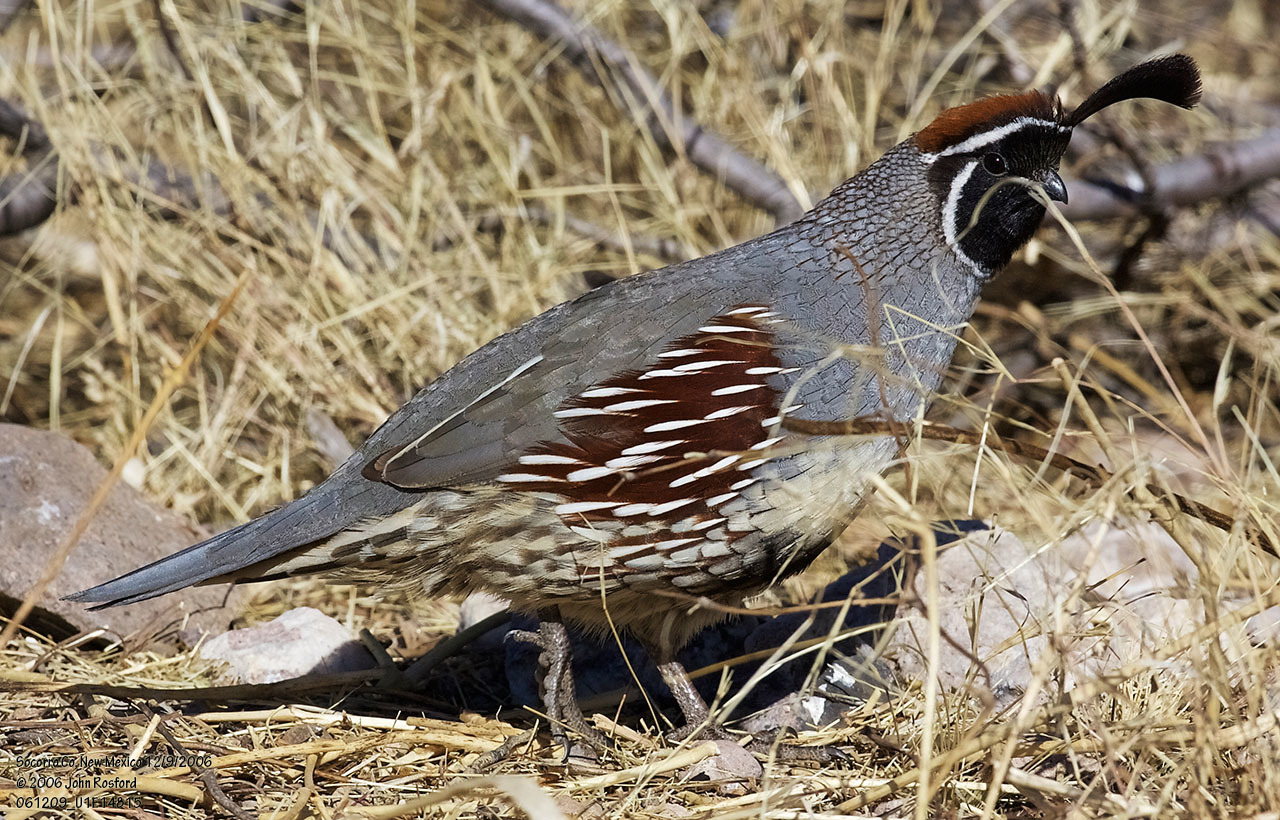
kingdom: Animalia
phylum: Chordata
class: Aves
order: Galliformes
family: Odontophoridae
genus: Callipepla
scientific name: Callipepla gambelii
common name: Gambel's quail
